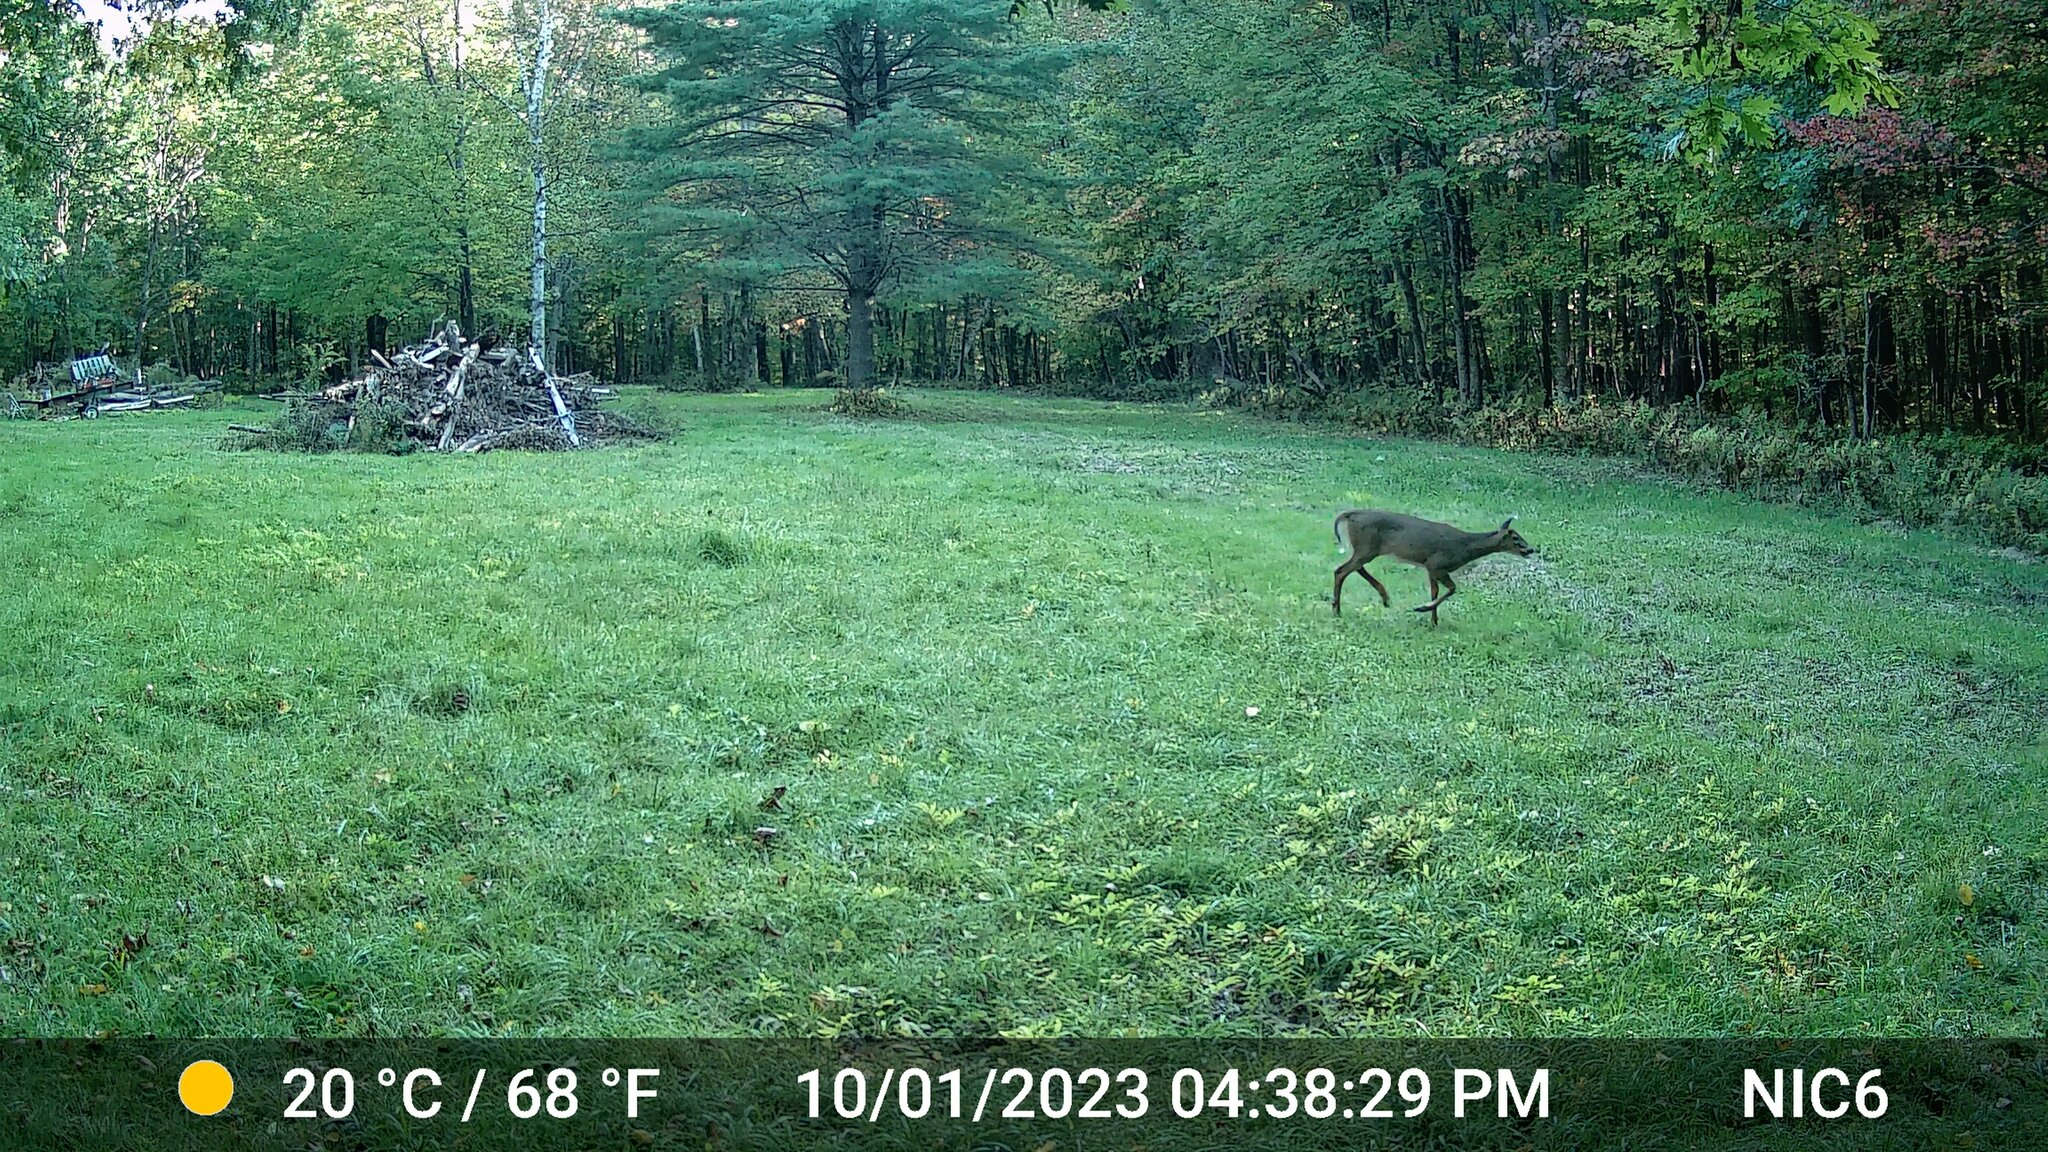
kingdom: Animalia
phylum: Chordata
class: Mammalia
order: Artiodactyla
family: Cervidae
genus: Odocoileus
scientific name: Odocoileus virginianus
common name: White-tailed deer
